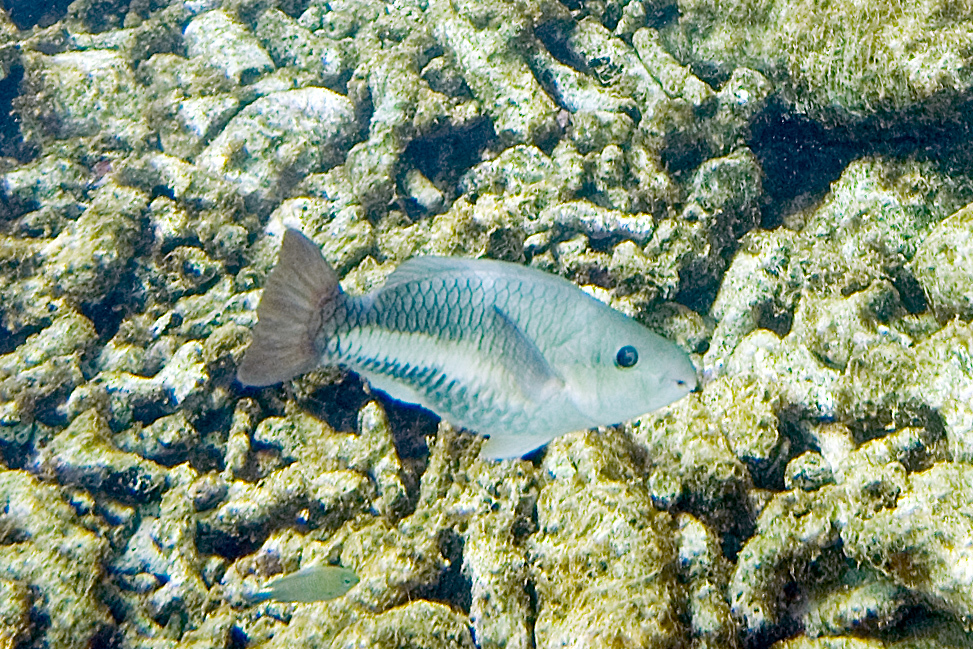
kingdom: Animalia
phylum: Chordata
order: Perciformes
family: Scaridae
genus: Scarus
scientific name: Scarus vetula
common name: Queen parrotfish
